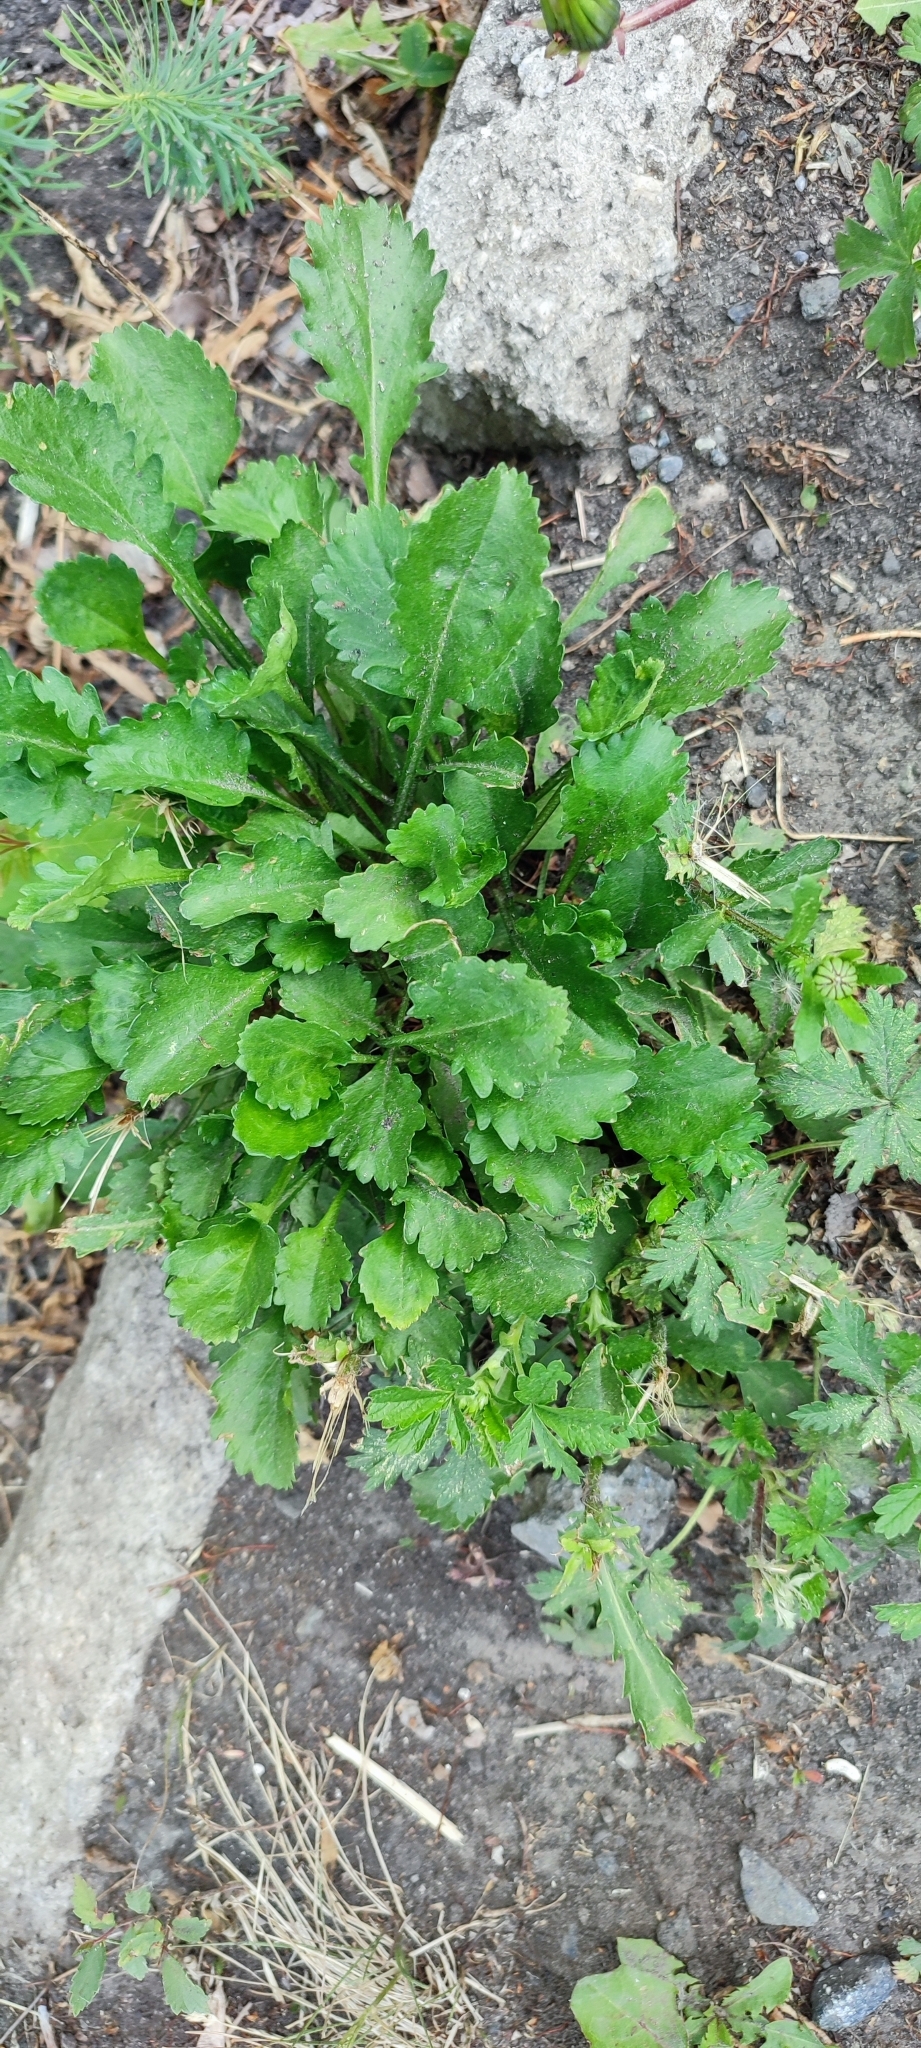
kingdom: Plantae
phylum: Tracheophyta
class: Magnoliopsida
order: Asterales
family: Asteraceae
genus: Leucanthemum
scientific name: Leucanthemum ircutianum
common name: Daisy
